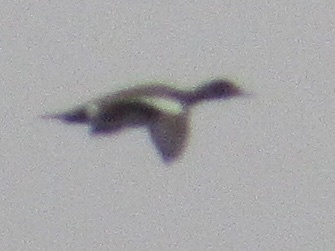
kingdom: Animalia
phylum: Chordata
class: Aves
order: Anseriformes
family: Anatidae
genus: Mareca
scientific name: Mareca americana
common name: American wigeon
